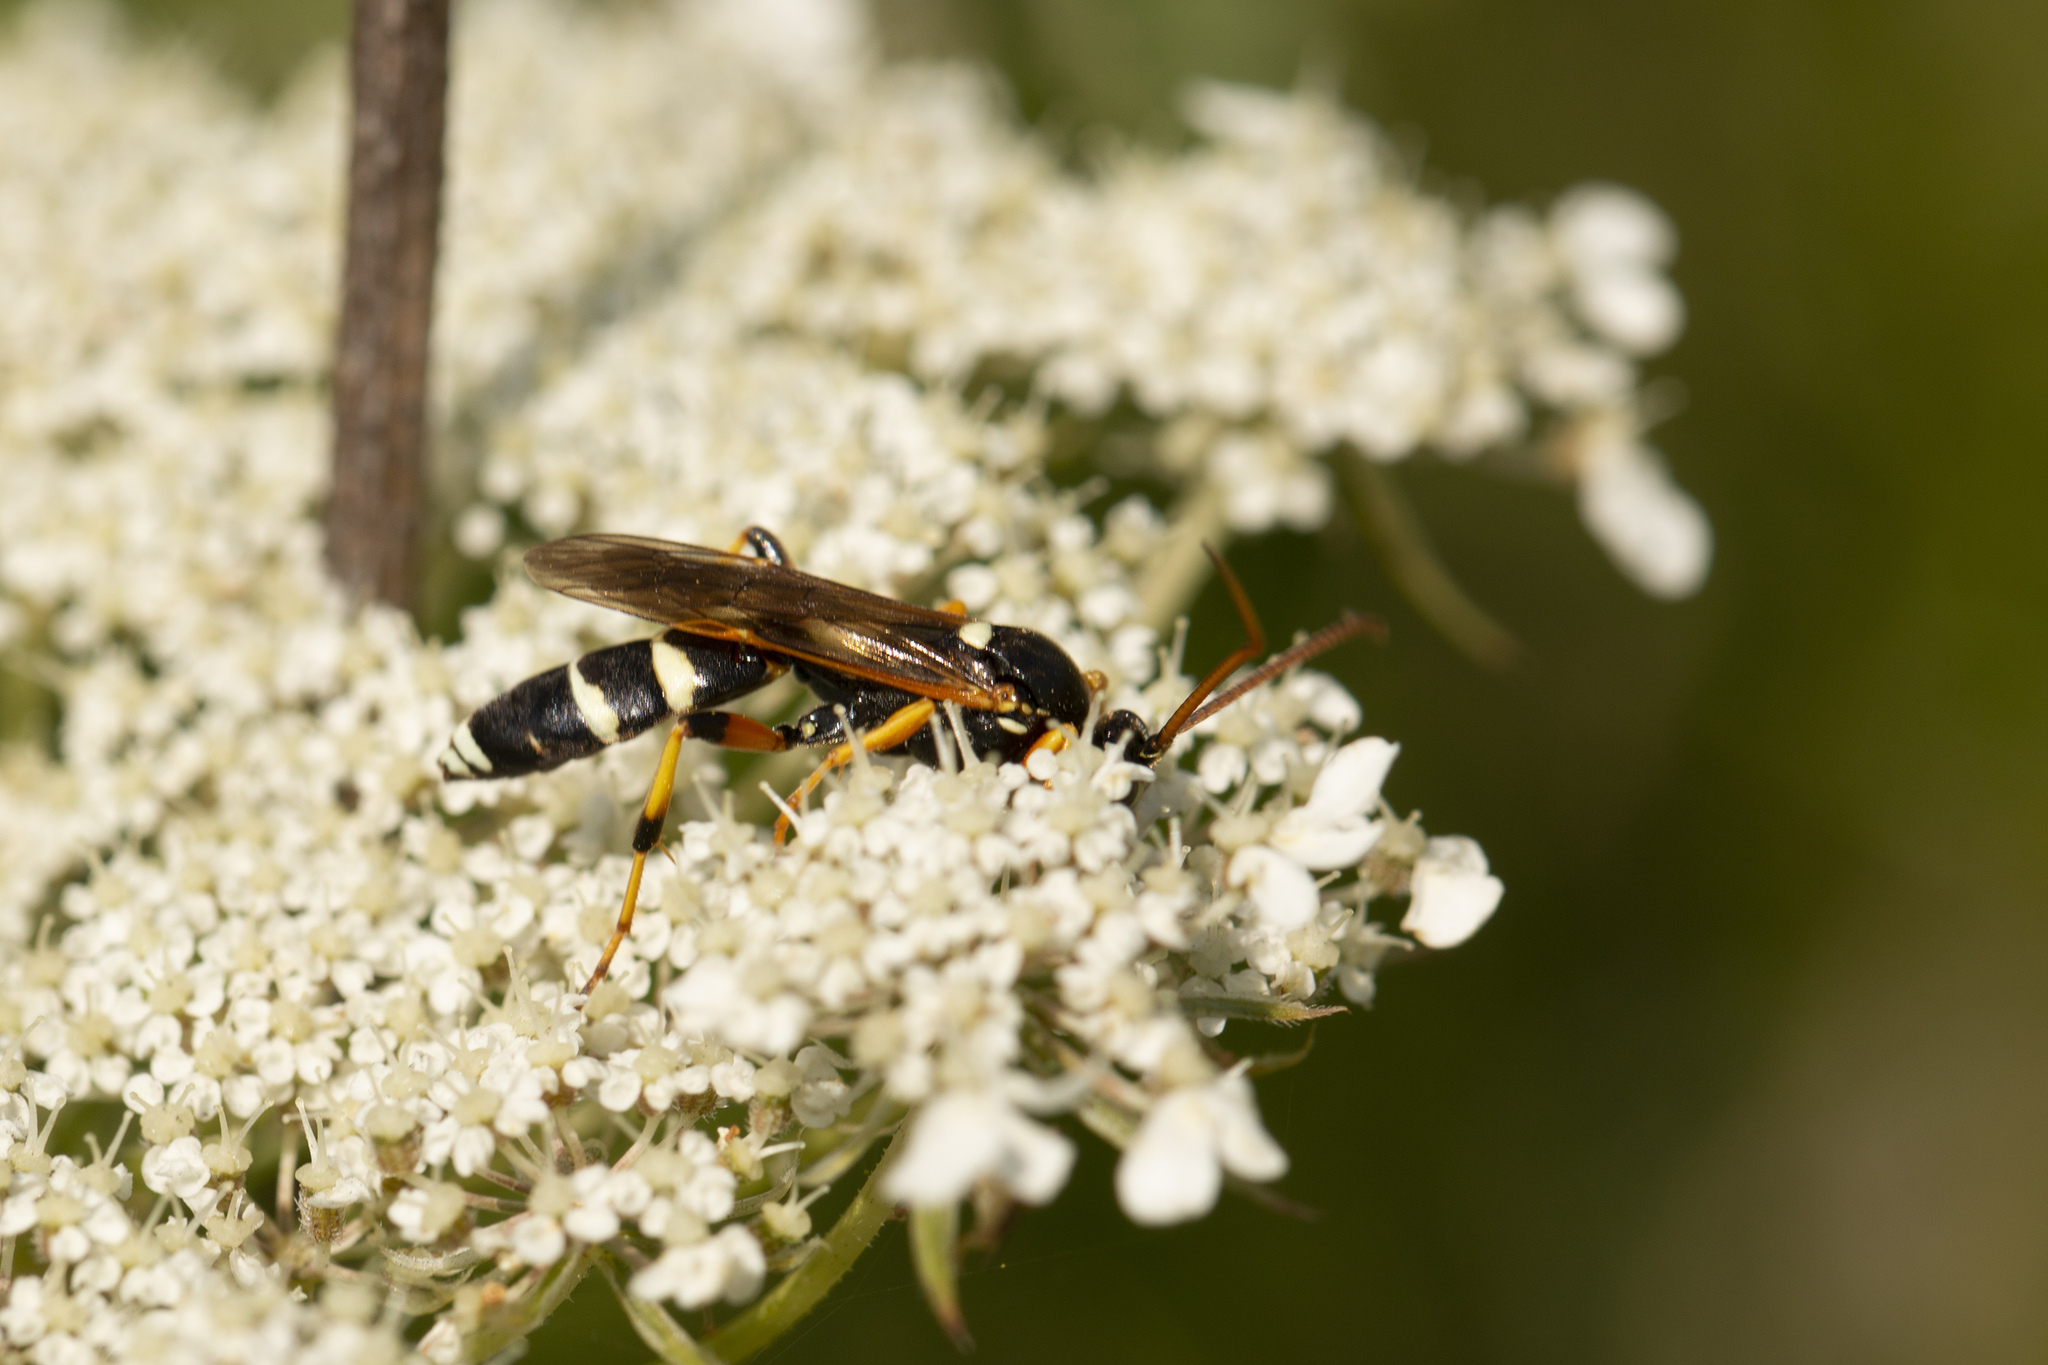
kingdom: Animalia
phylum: Arthropoda
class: Insecta
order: Hymenoptera
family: Ichneumonidae
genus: Ichneumon
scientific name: Ichneumon sarcitorius
